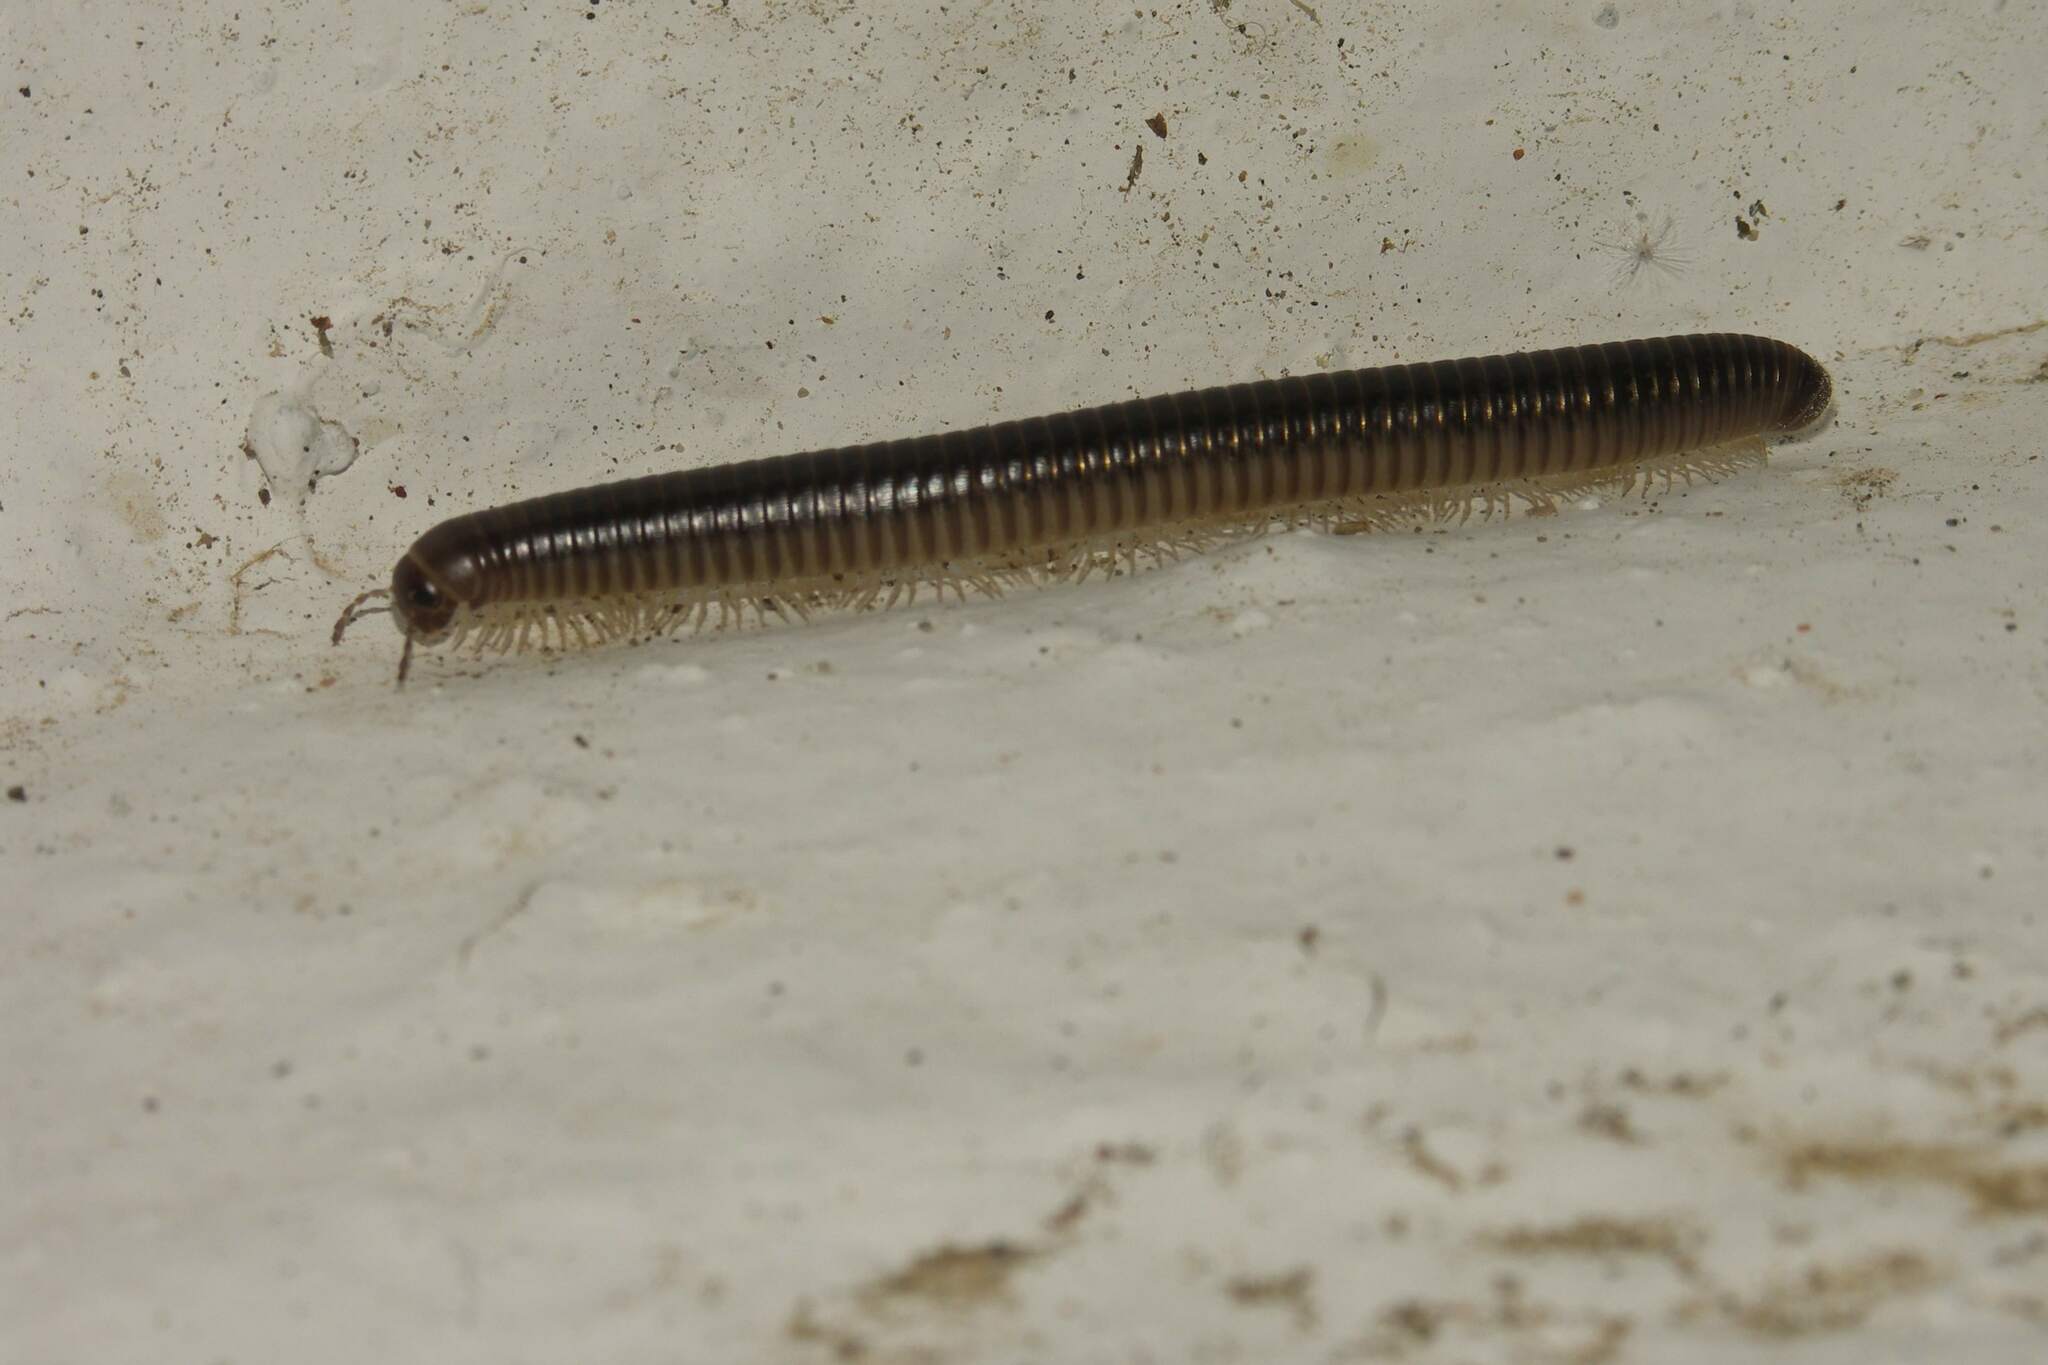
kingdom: Animalia
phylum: Arthropoda
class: Diplopoda
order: Julida
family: Julidae
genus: Pachyiulus
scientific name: Pachyiulus flavipes
